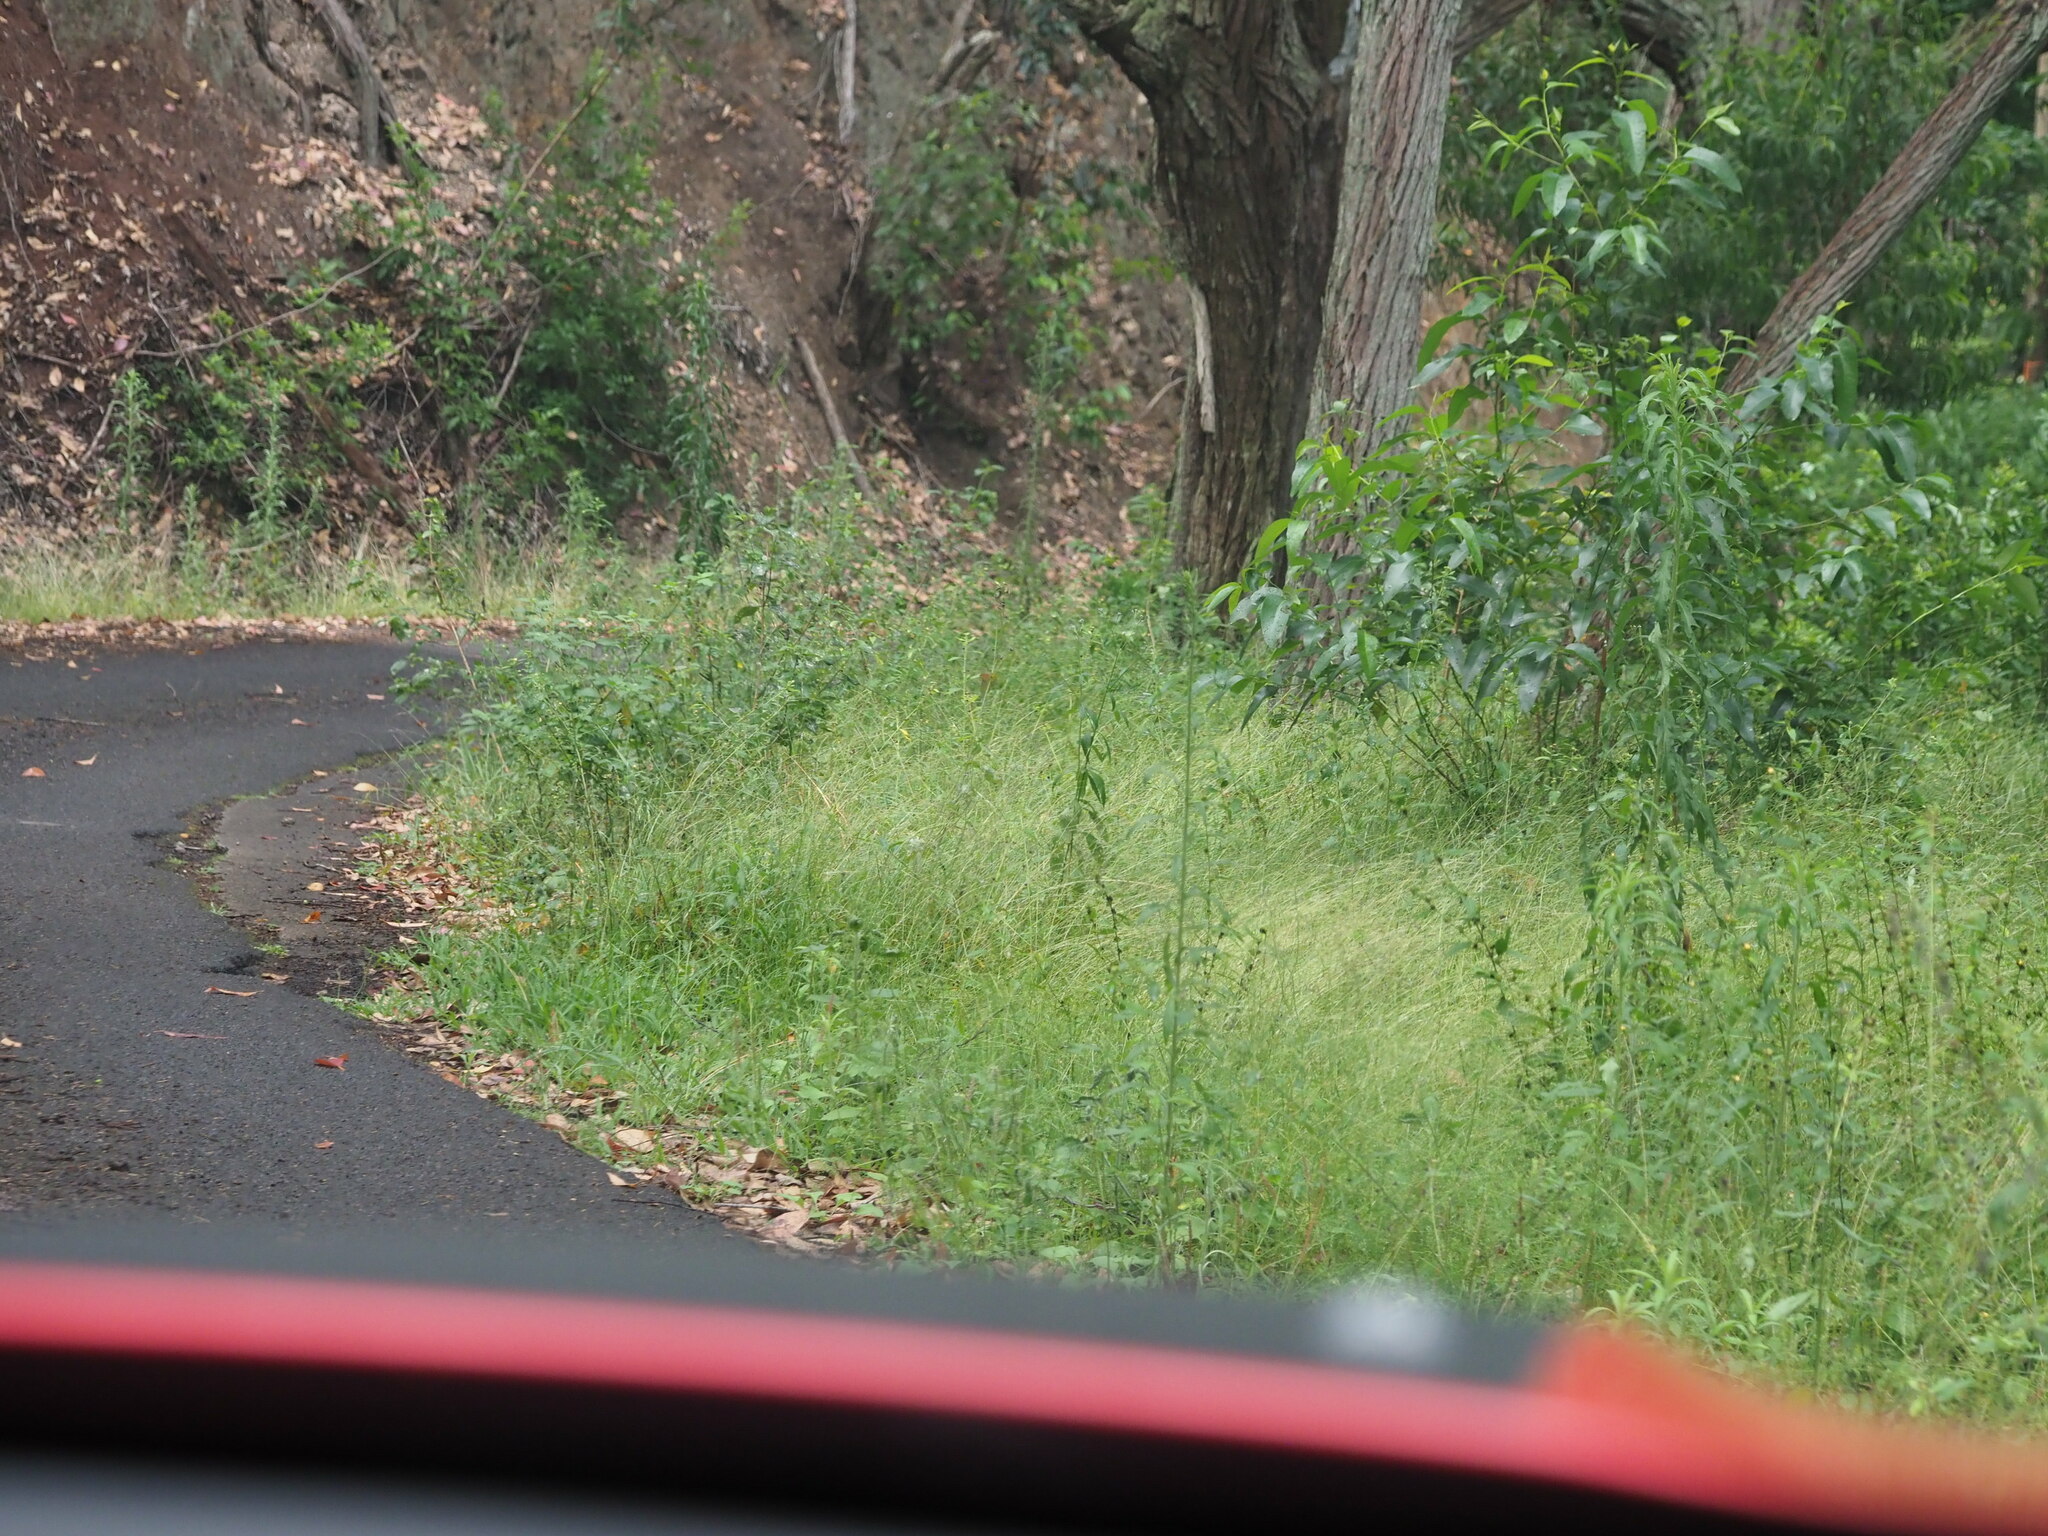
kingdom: Plantae
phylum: Tracheophyta
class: Liliopsida
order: Poales
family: Poaceae
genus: Microlaena
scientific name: Microlaena stipoides
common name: Meadow ricegrass
